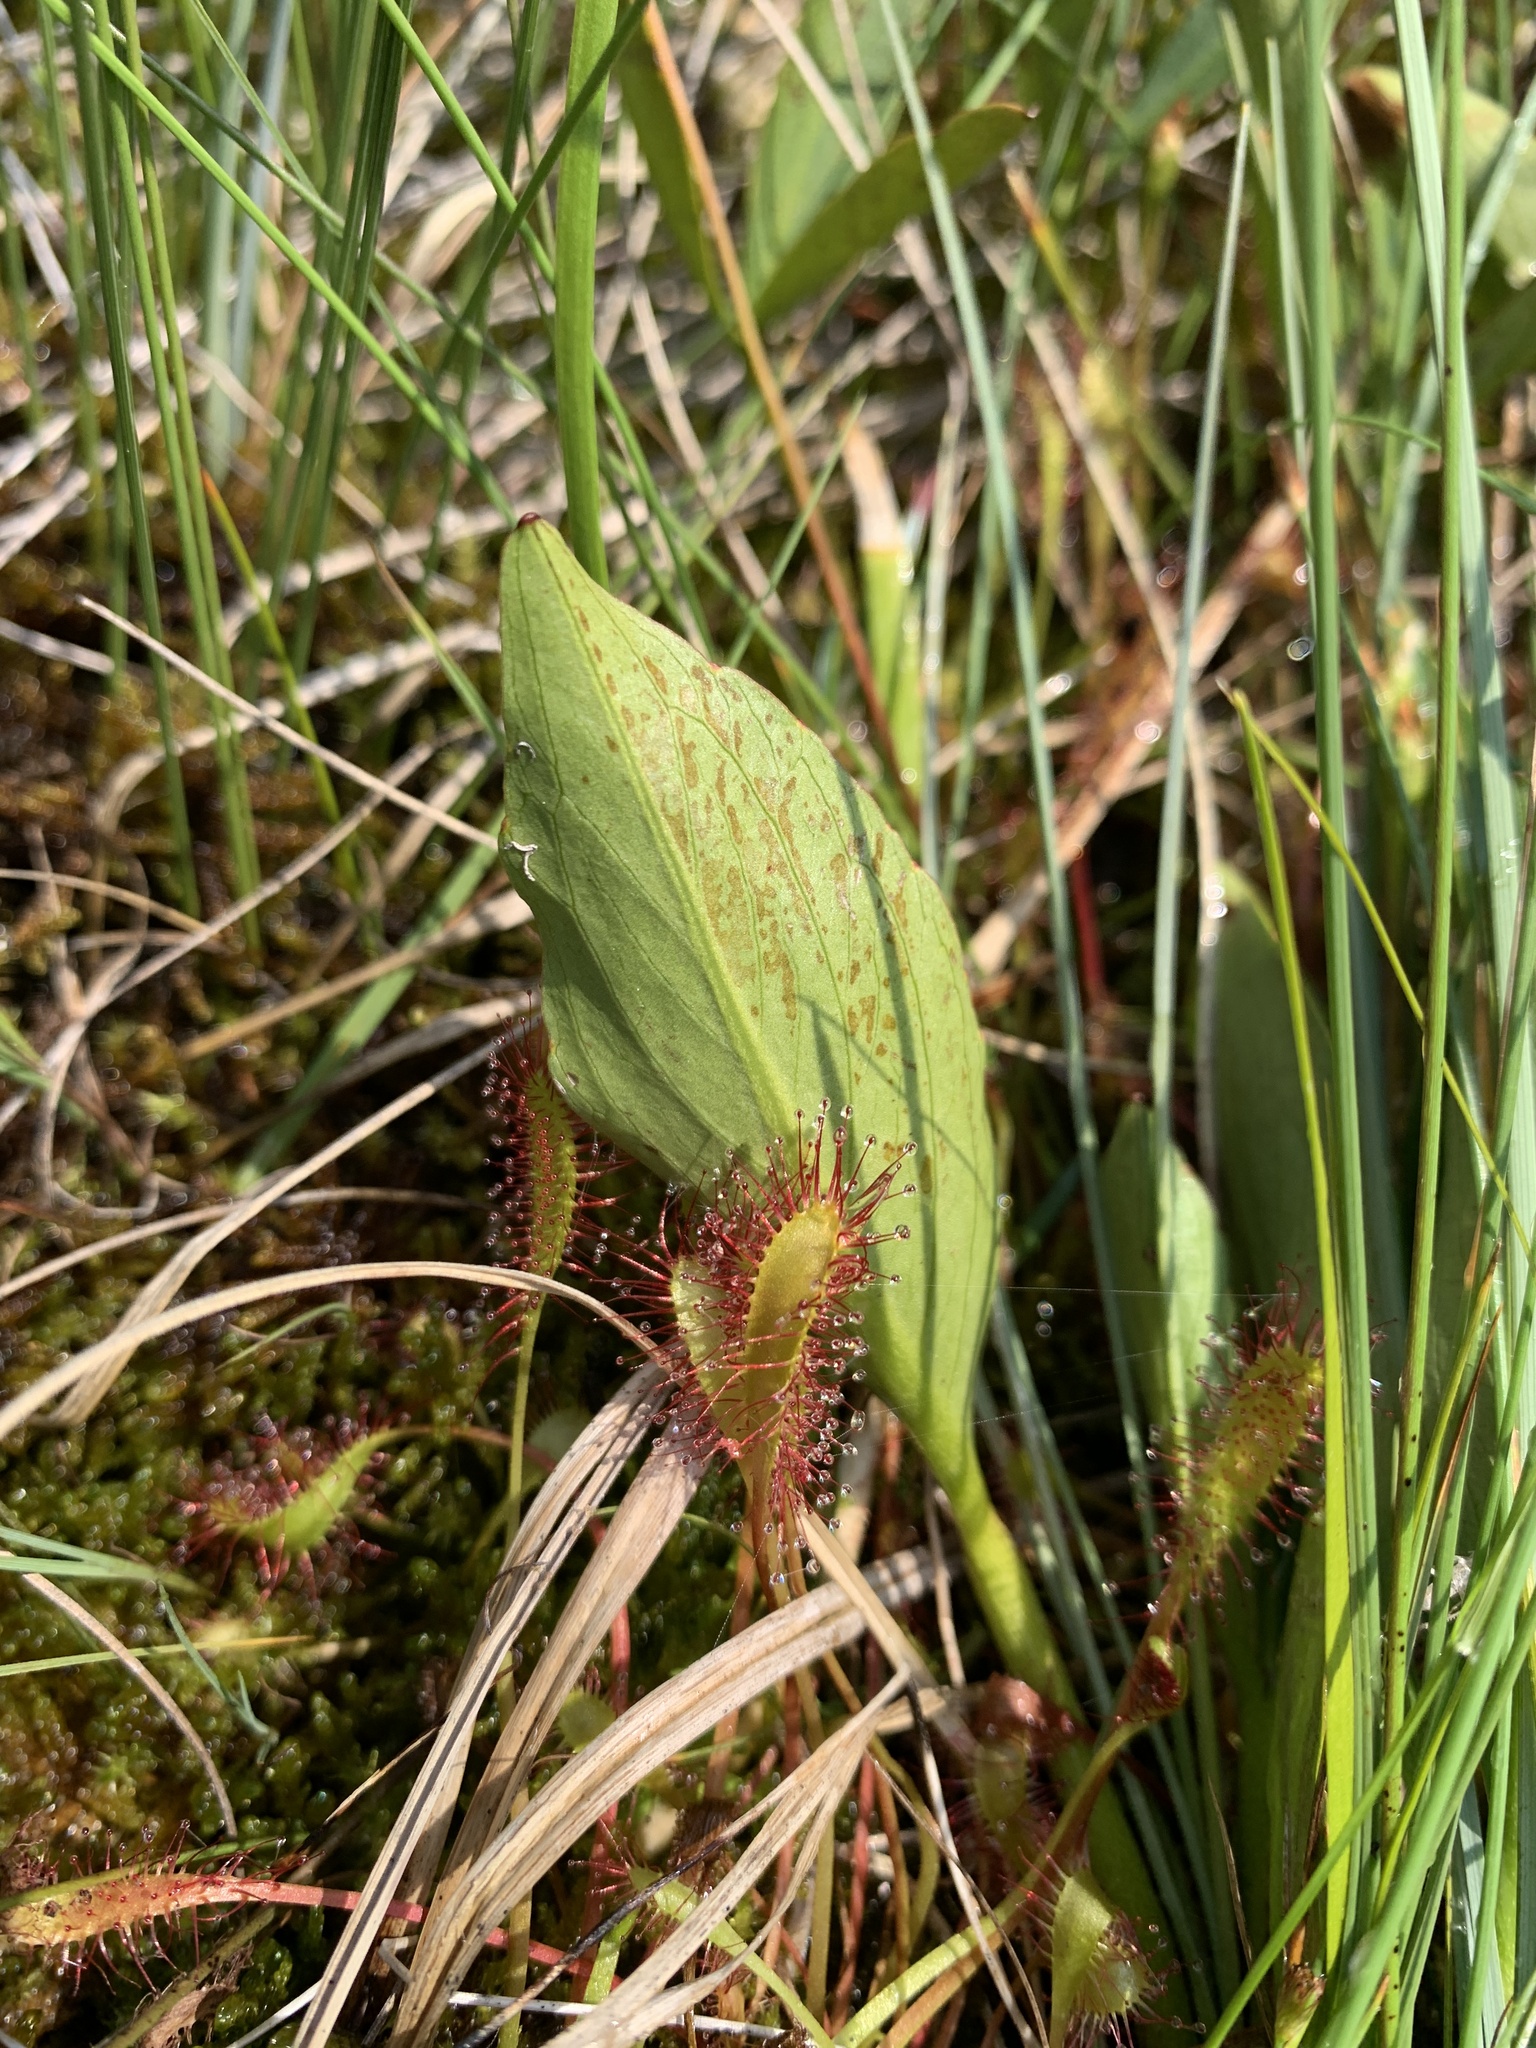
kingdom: Plantae
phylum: Tracheophyta
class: Magnoliopsida
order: Caryophyllales
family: Droseraceae
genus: Drosera
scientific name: Drosera anglica
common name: Great sundew
